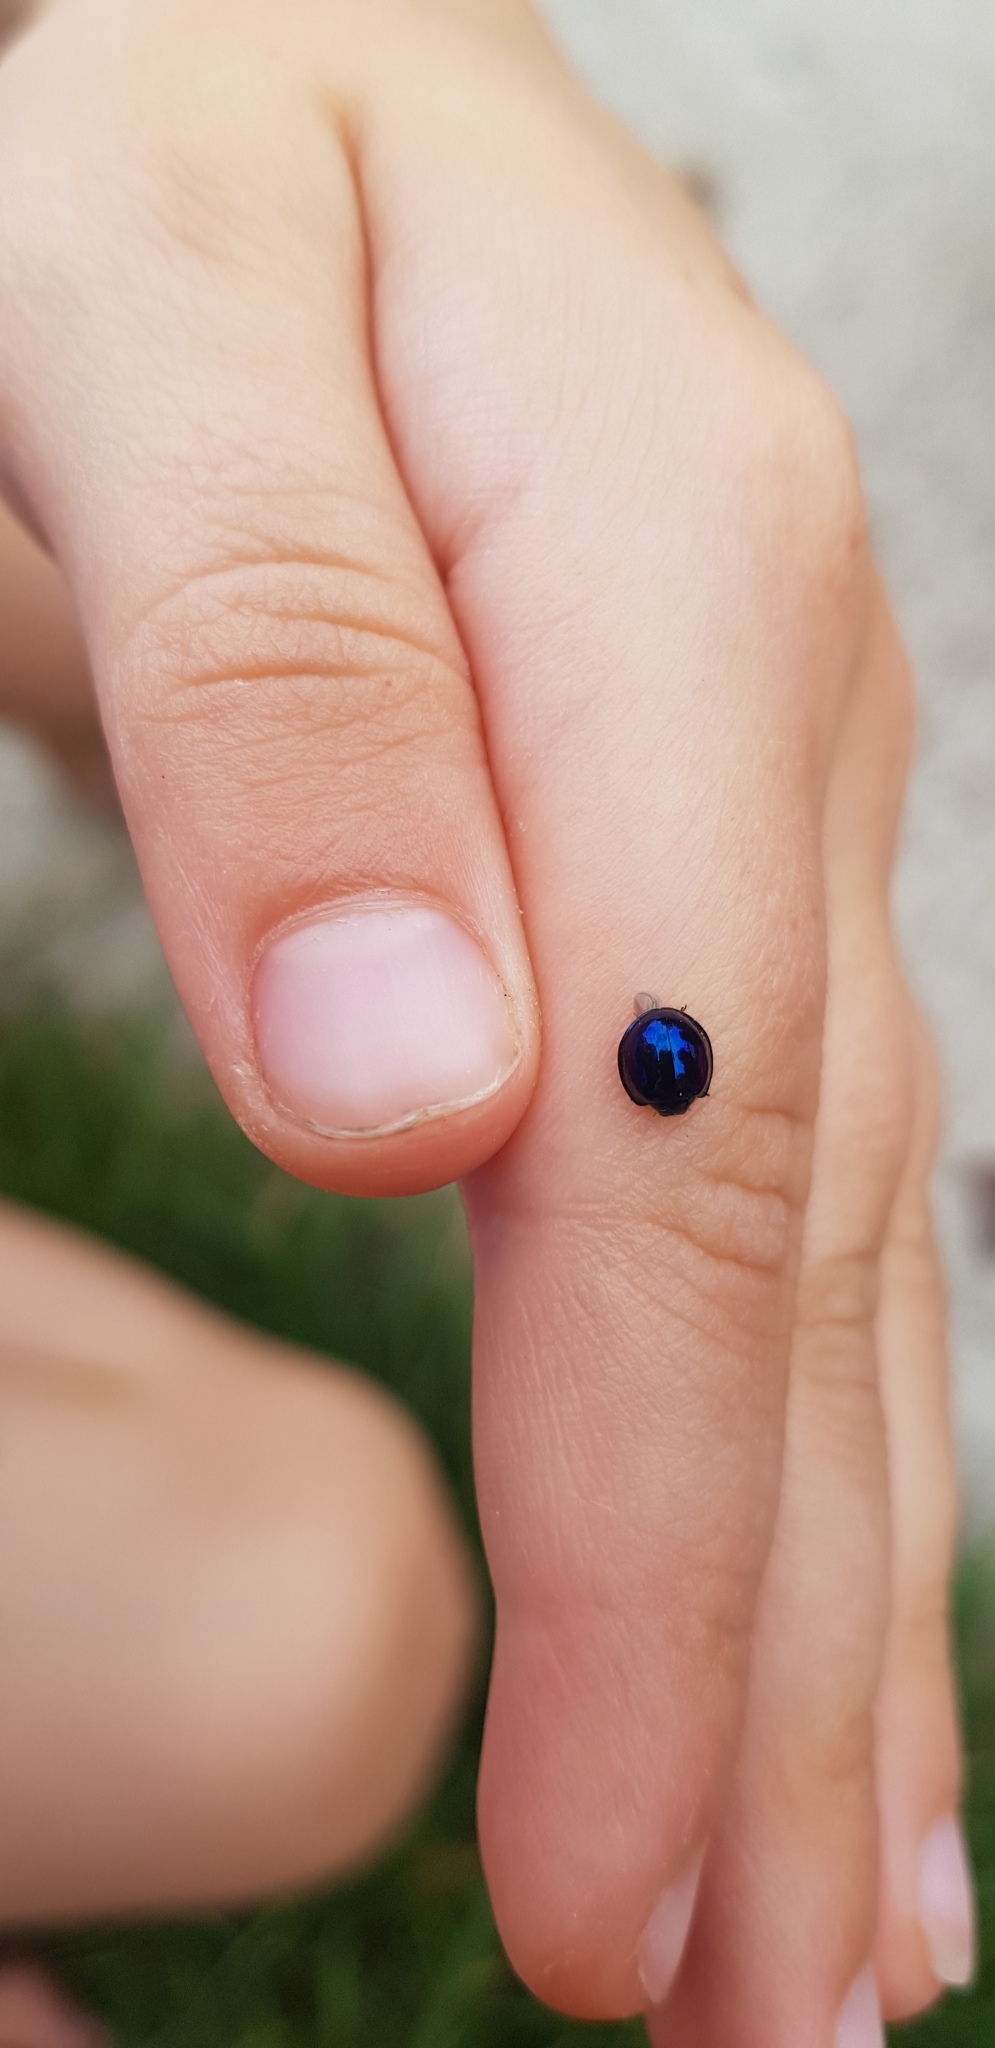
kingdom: Animalia
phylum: Arthropoda
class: Insecta
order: Coleoptera
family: Coccinellidae
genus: Halmus
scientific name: Halmus chalybeus
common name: Steel blue ladybird beetle
